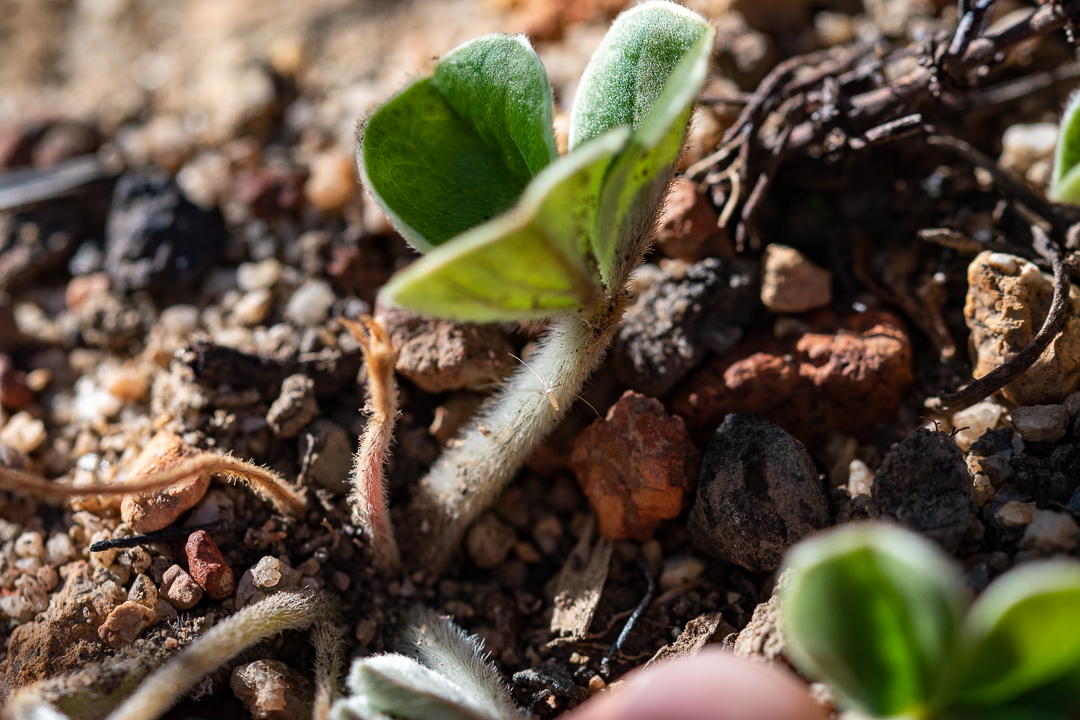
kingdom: Plantae
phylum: Tracheophyta
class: Magnoliopsida
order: Oxalidales
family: Oxalidaceae
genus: Oxalis
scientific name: Oxalis truncatula
